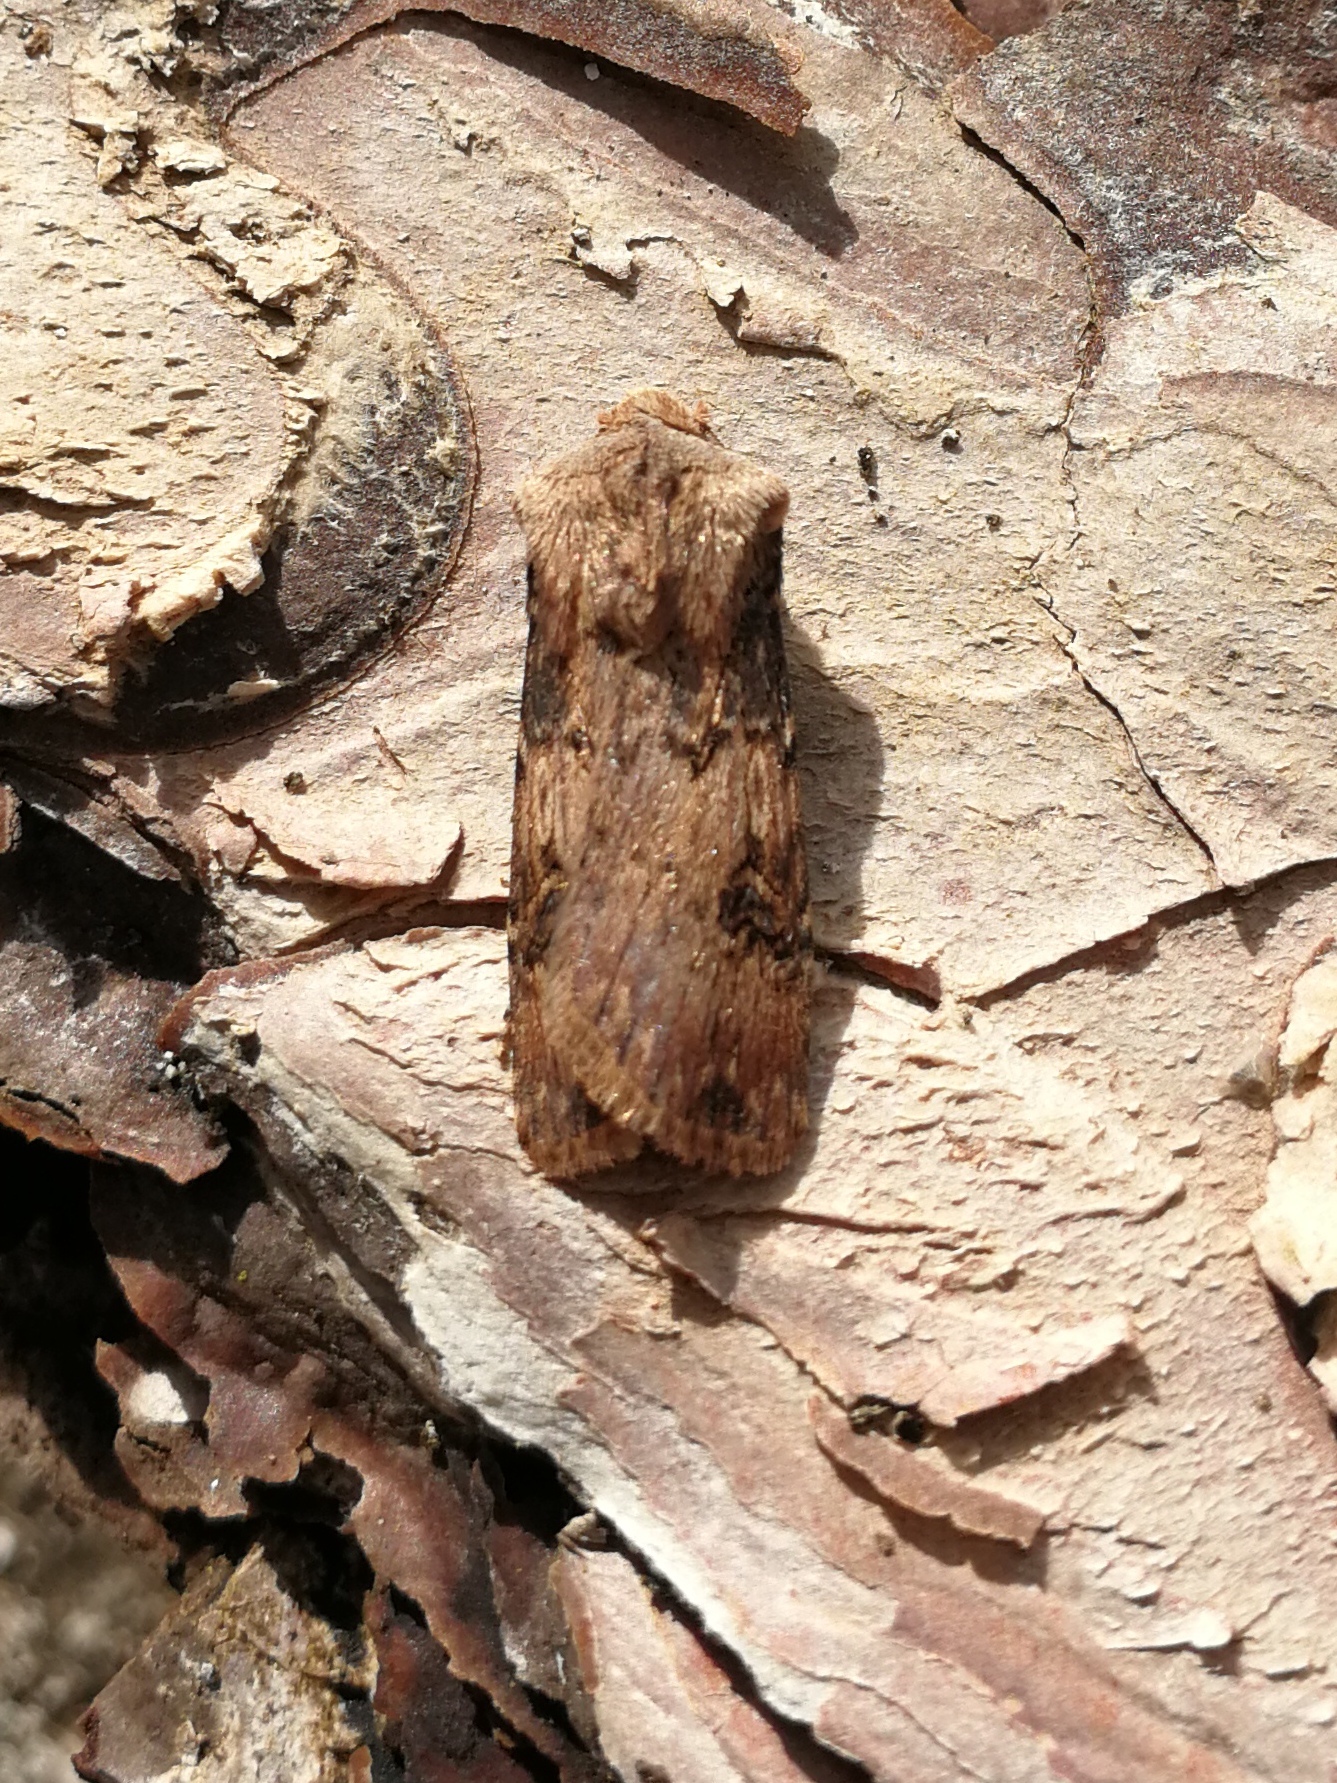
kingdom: Animalia
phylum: Arthropoda
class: Insecta
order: Lepidoptera
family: Noctuidae
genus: Agrotis
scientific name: Agrotis puta
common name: Shuttle-shaped dart
